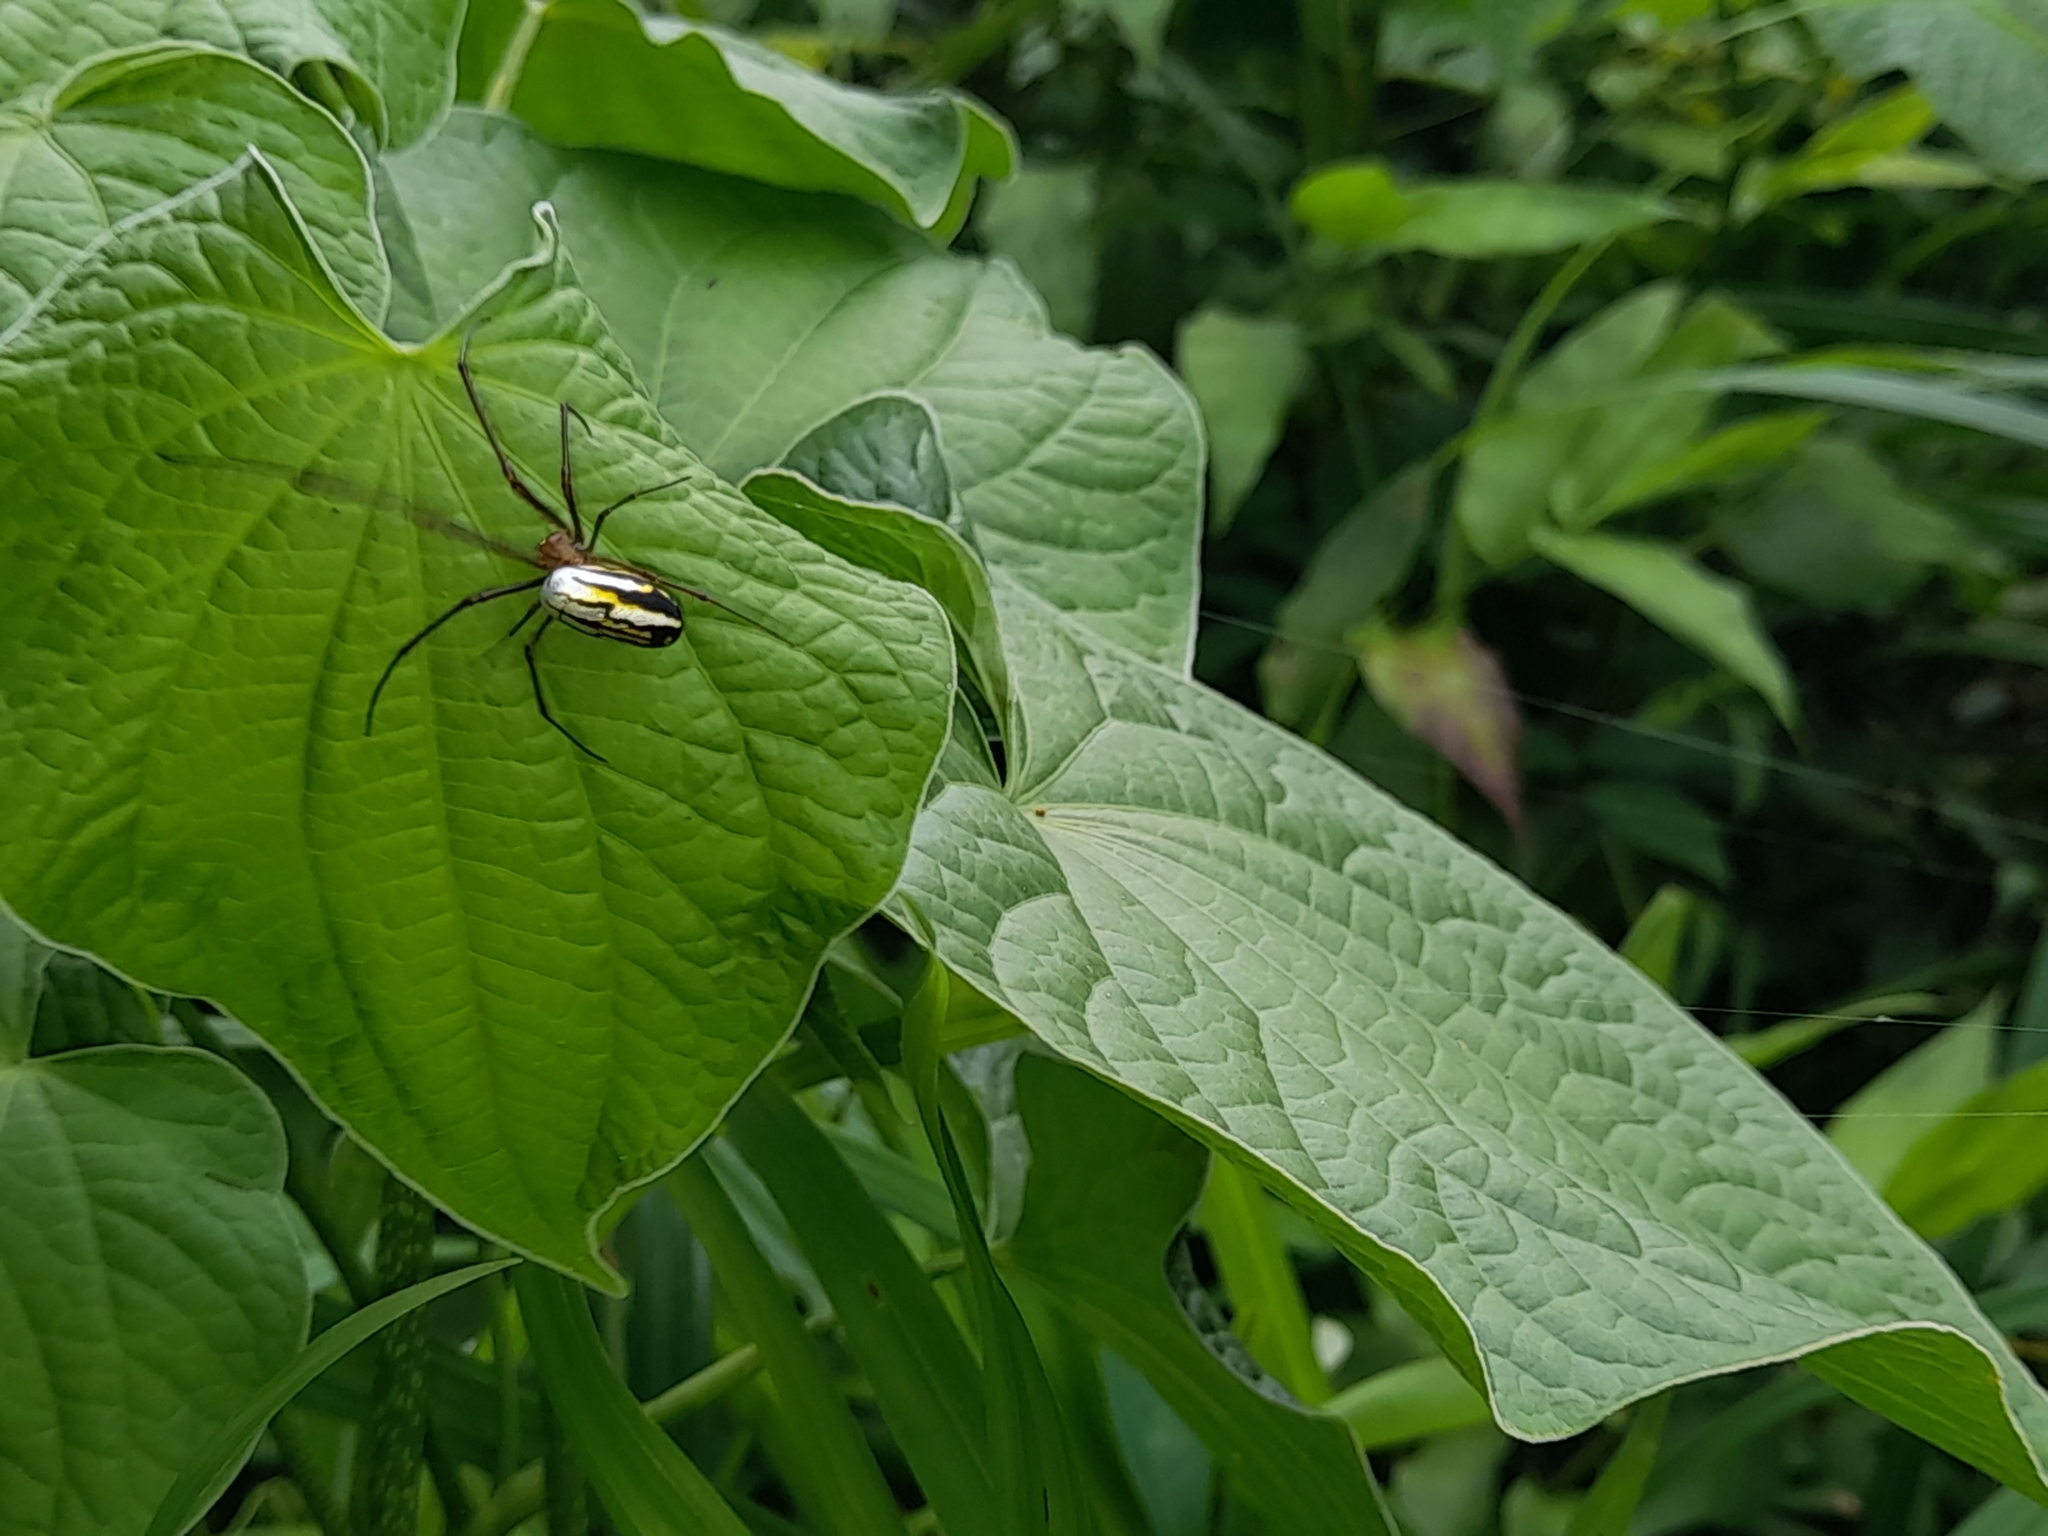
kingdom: Animalia
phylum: Arthropoda
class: Arachnida
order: Araneae
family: Tetragnathidae
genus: Leucauge
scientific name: Leucauge argyra
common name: Longjawed orb weavers
